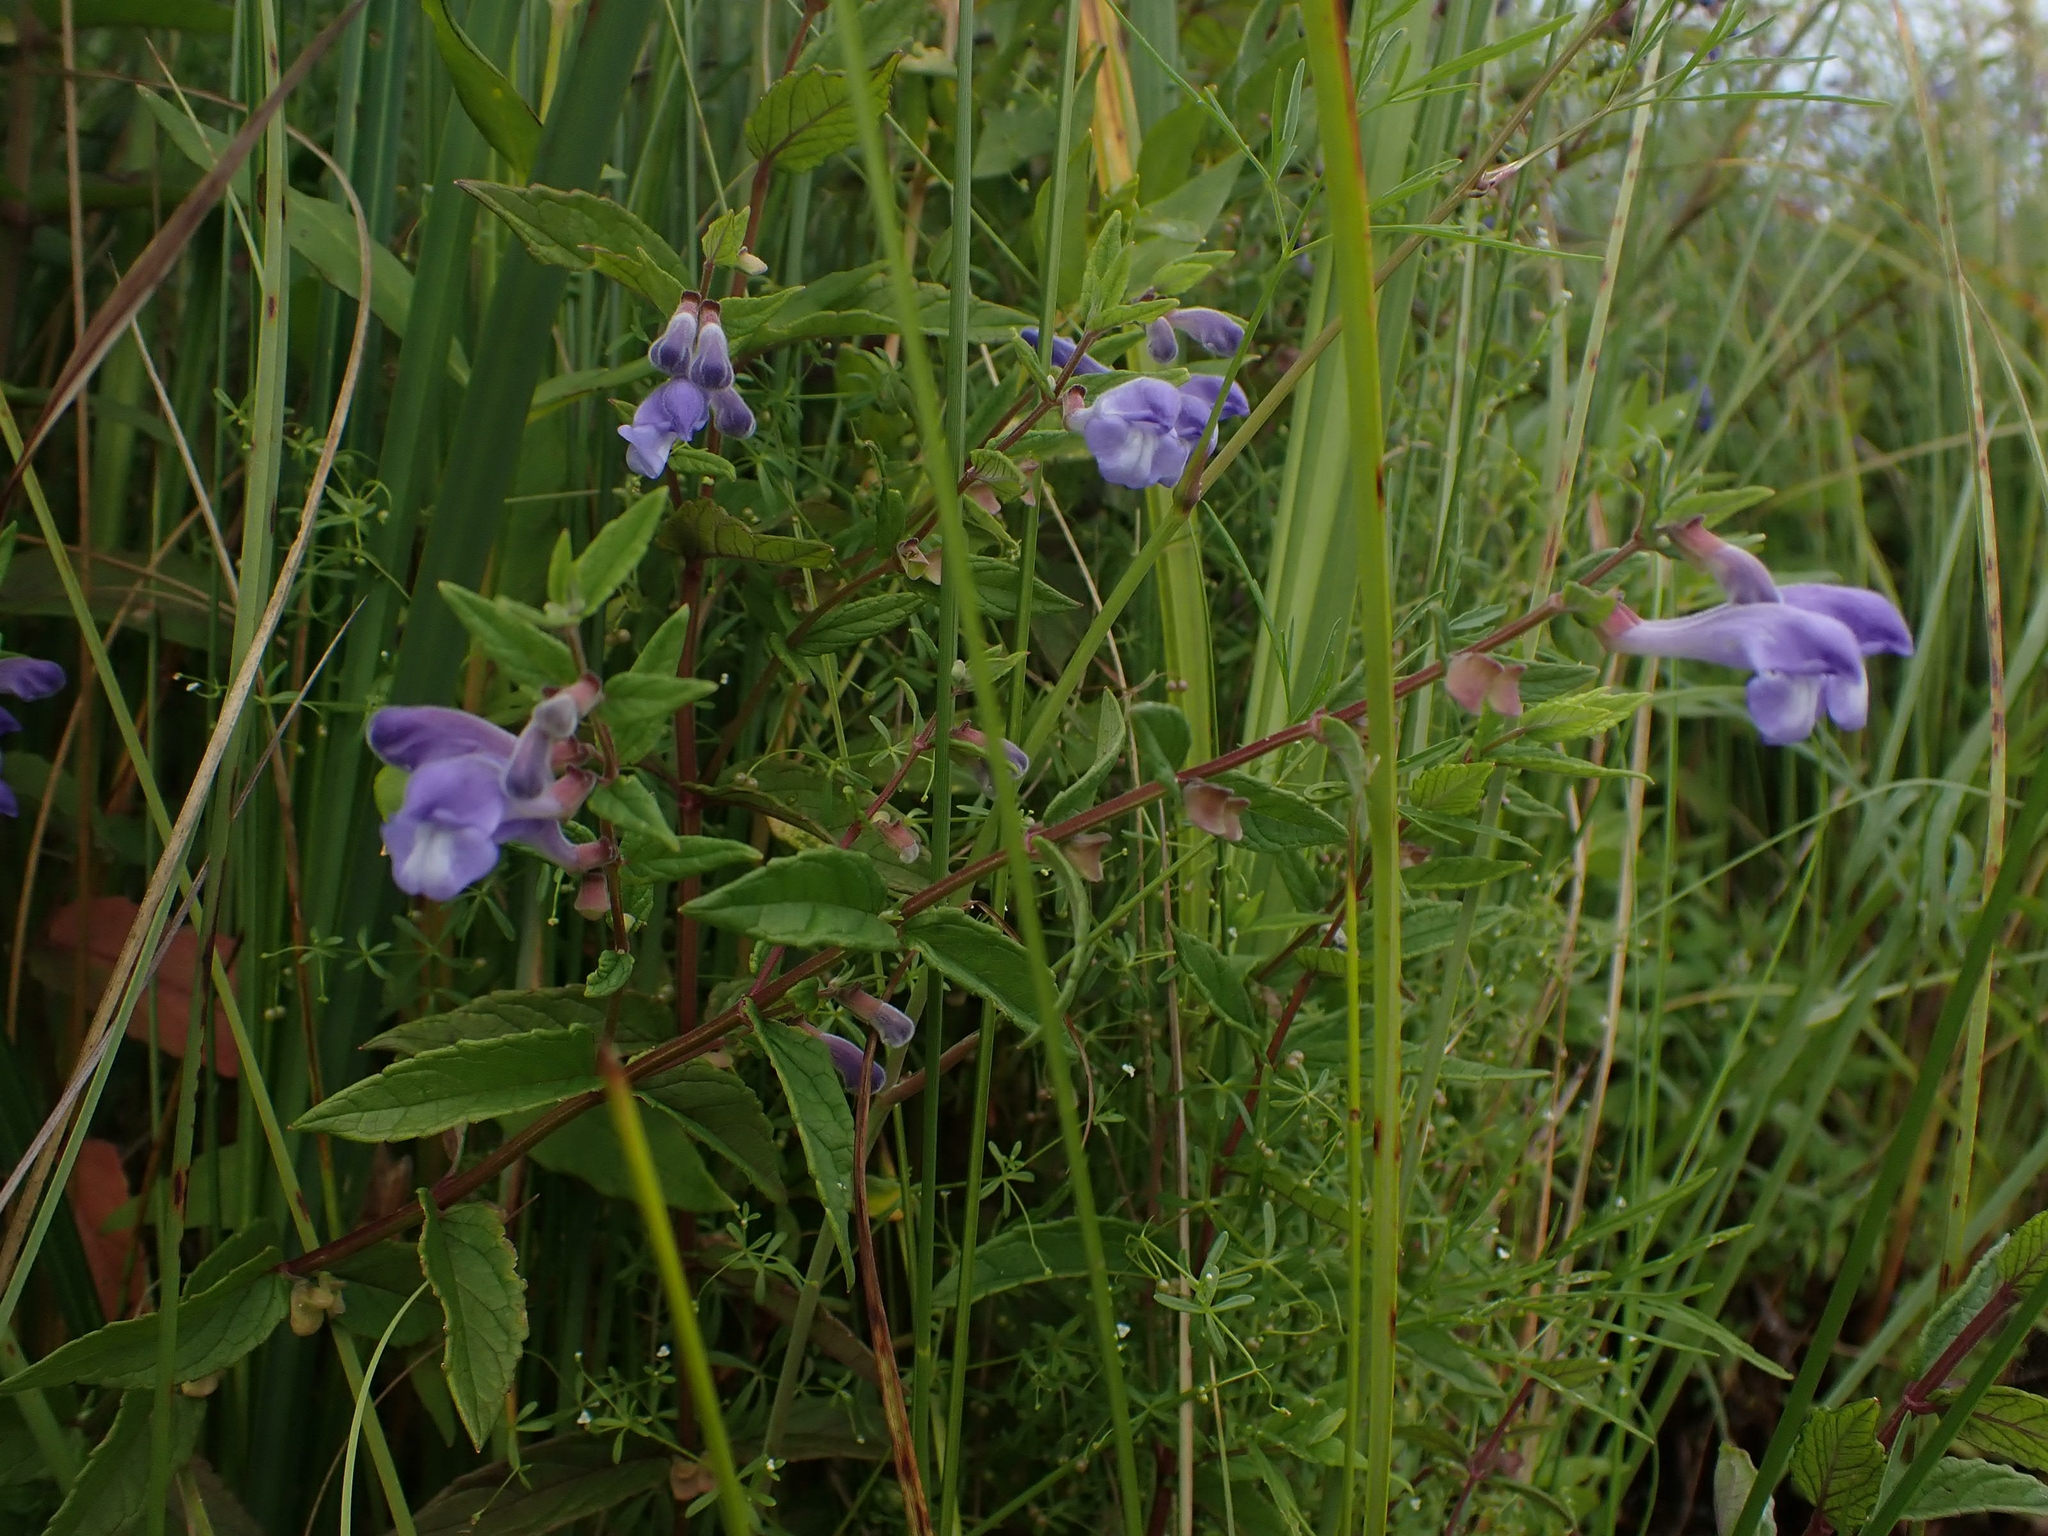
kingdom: Plantae
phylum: Tracheophyta
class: Magnoliopsida
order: Lamiales
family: Lamiaceae
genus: Scutellaria
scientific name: Scutellaria galericulata
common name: Skullcap
